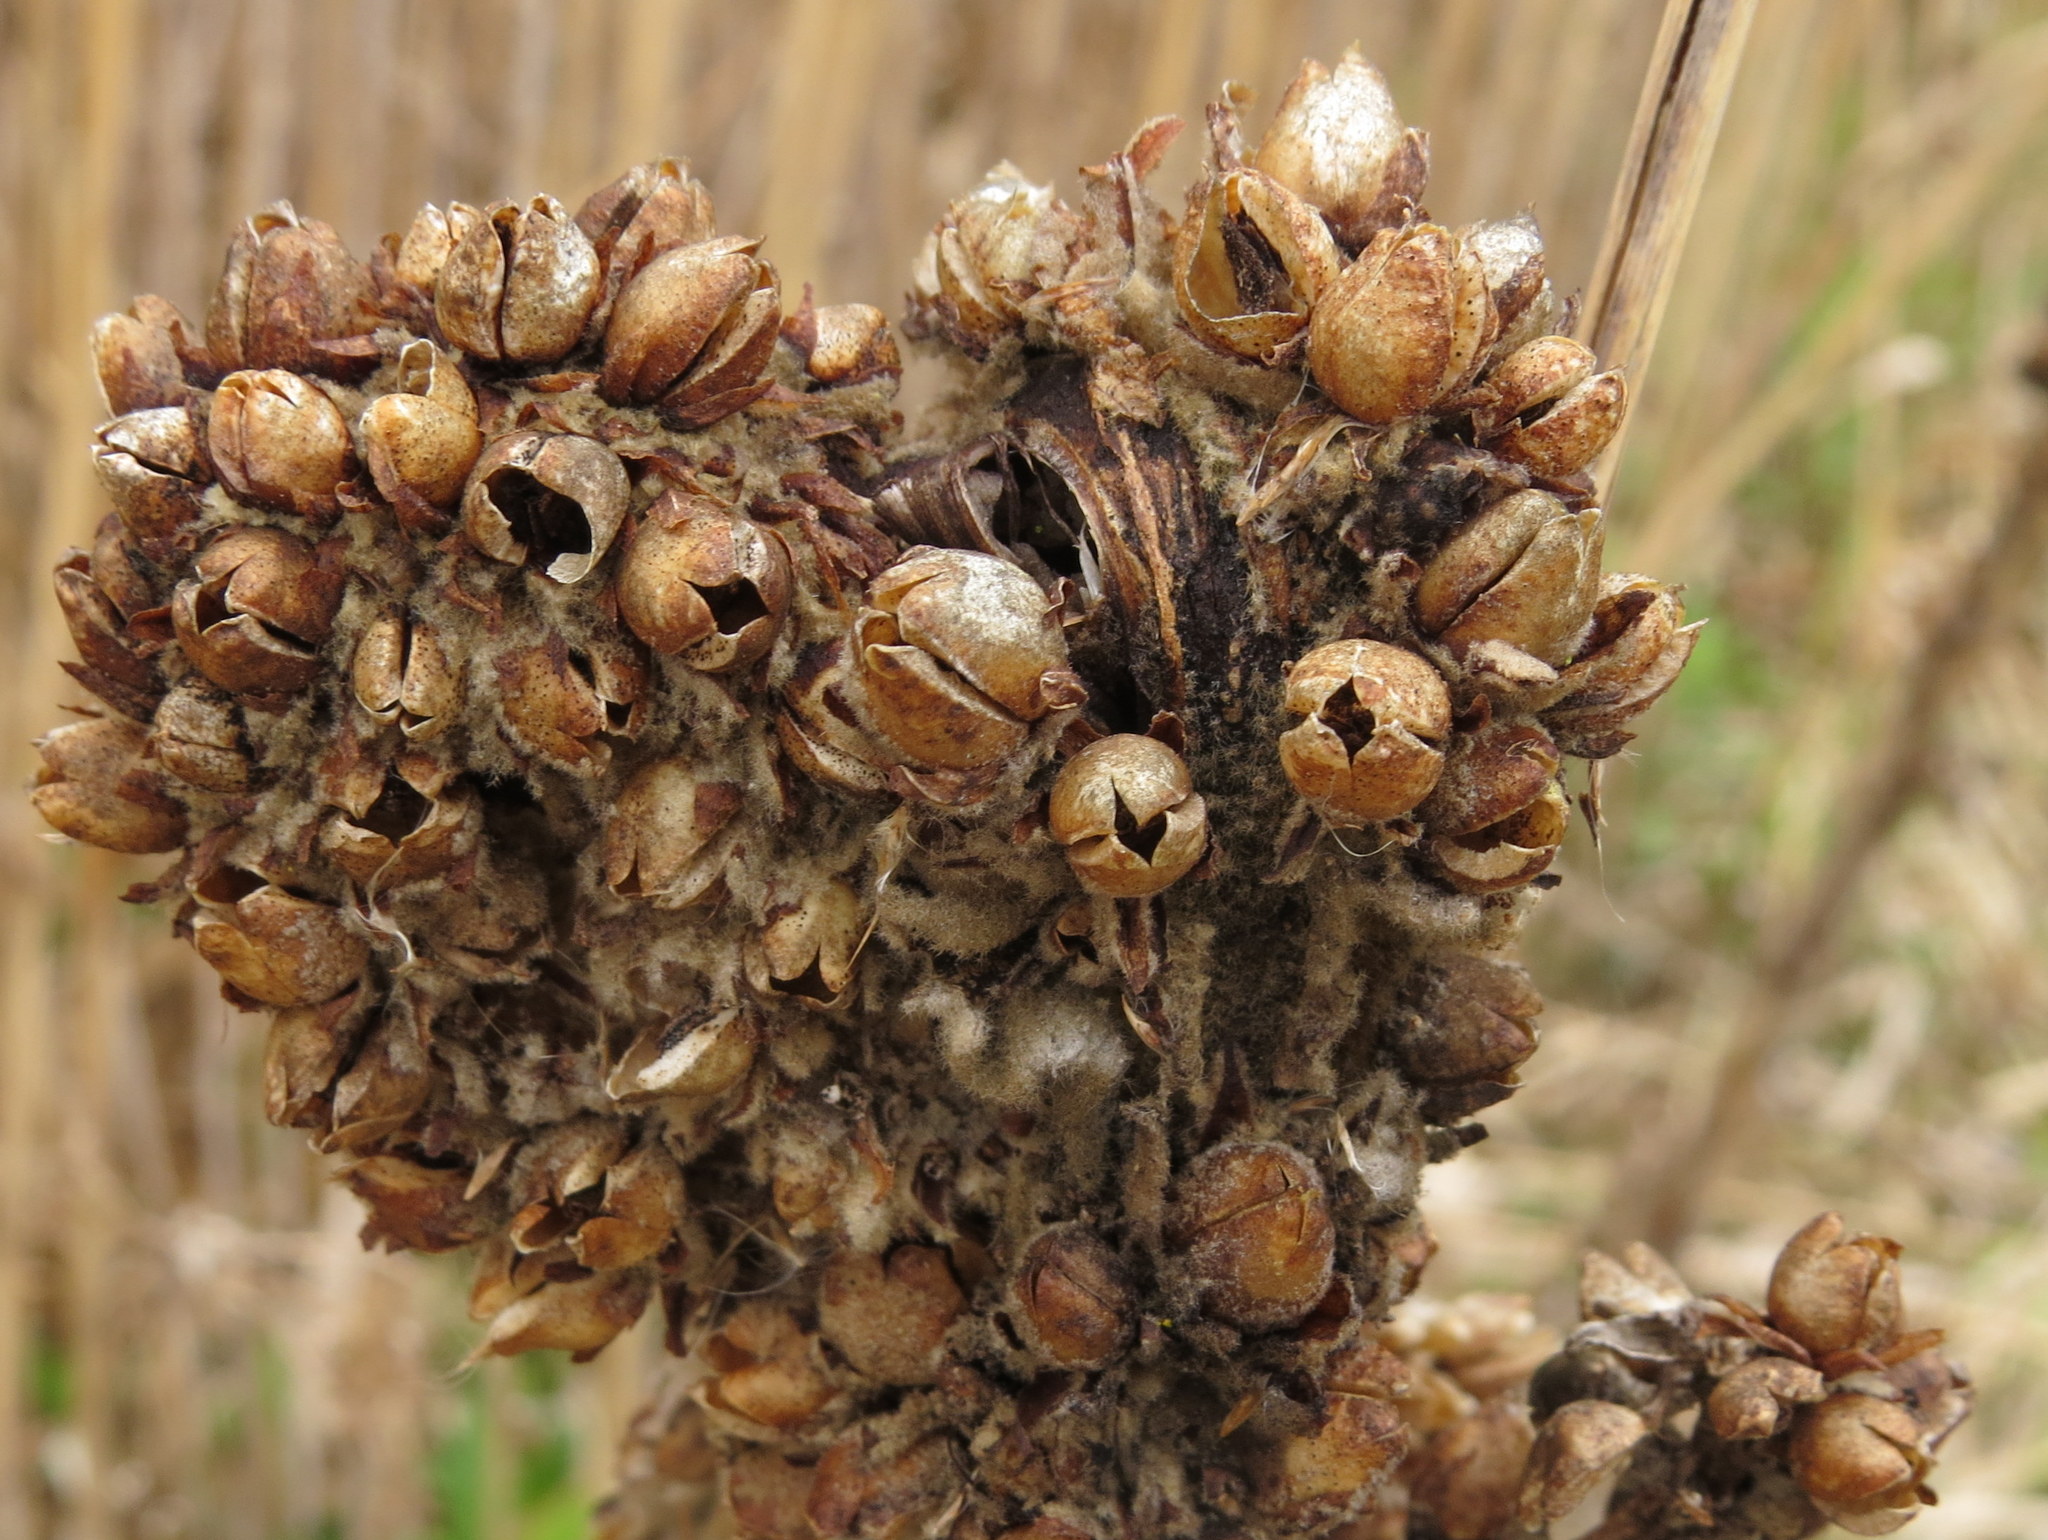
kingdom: Plantae
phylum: Tracheophyta
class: Magnoliopsida
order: Lamiales
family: Scrophulariaceae
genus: Verbascum
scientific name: Verbascum thapsus
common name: Common mullein
